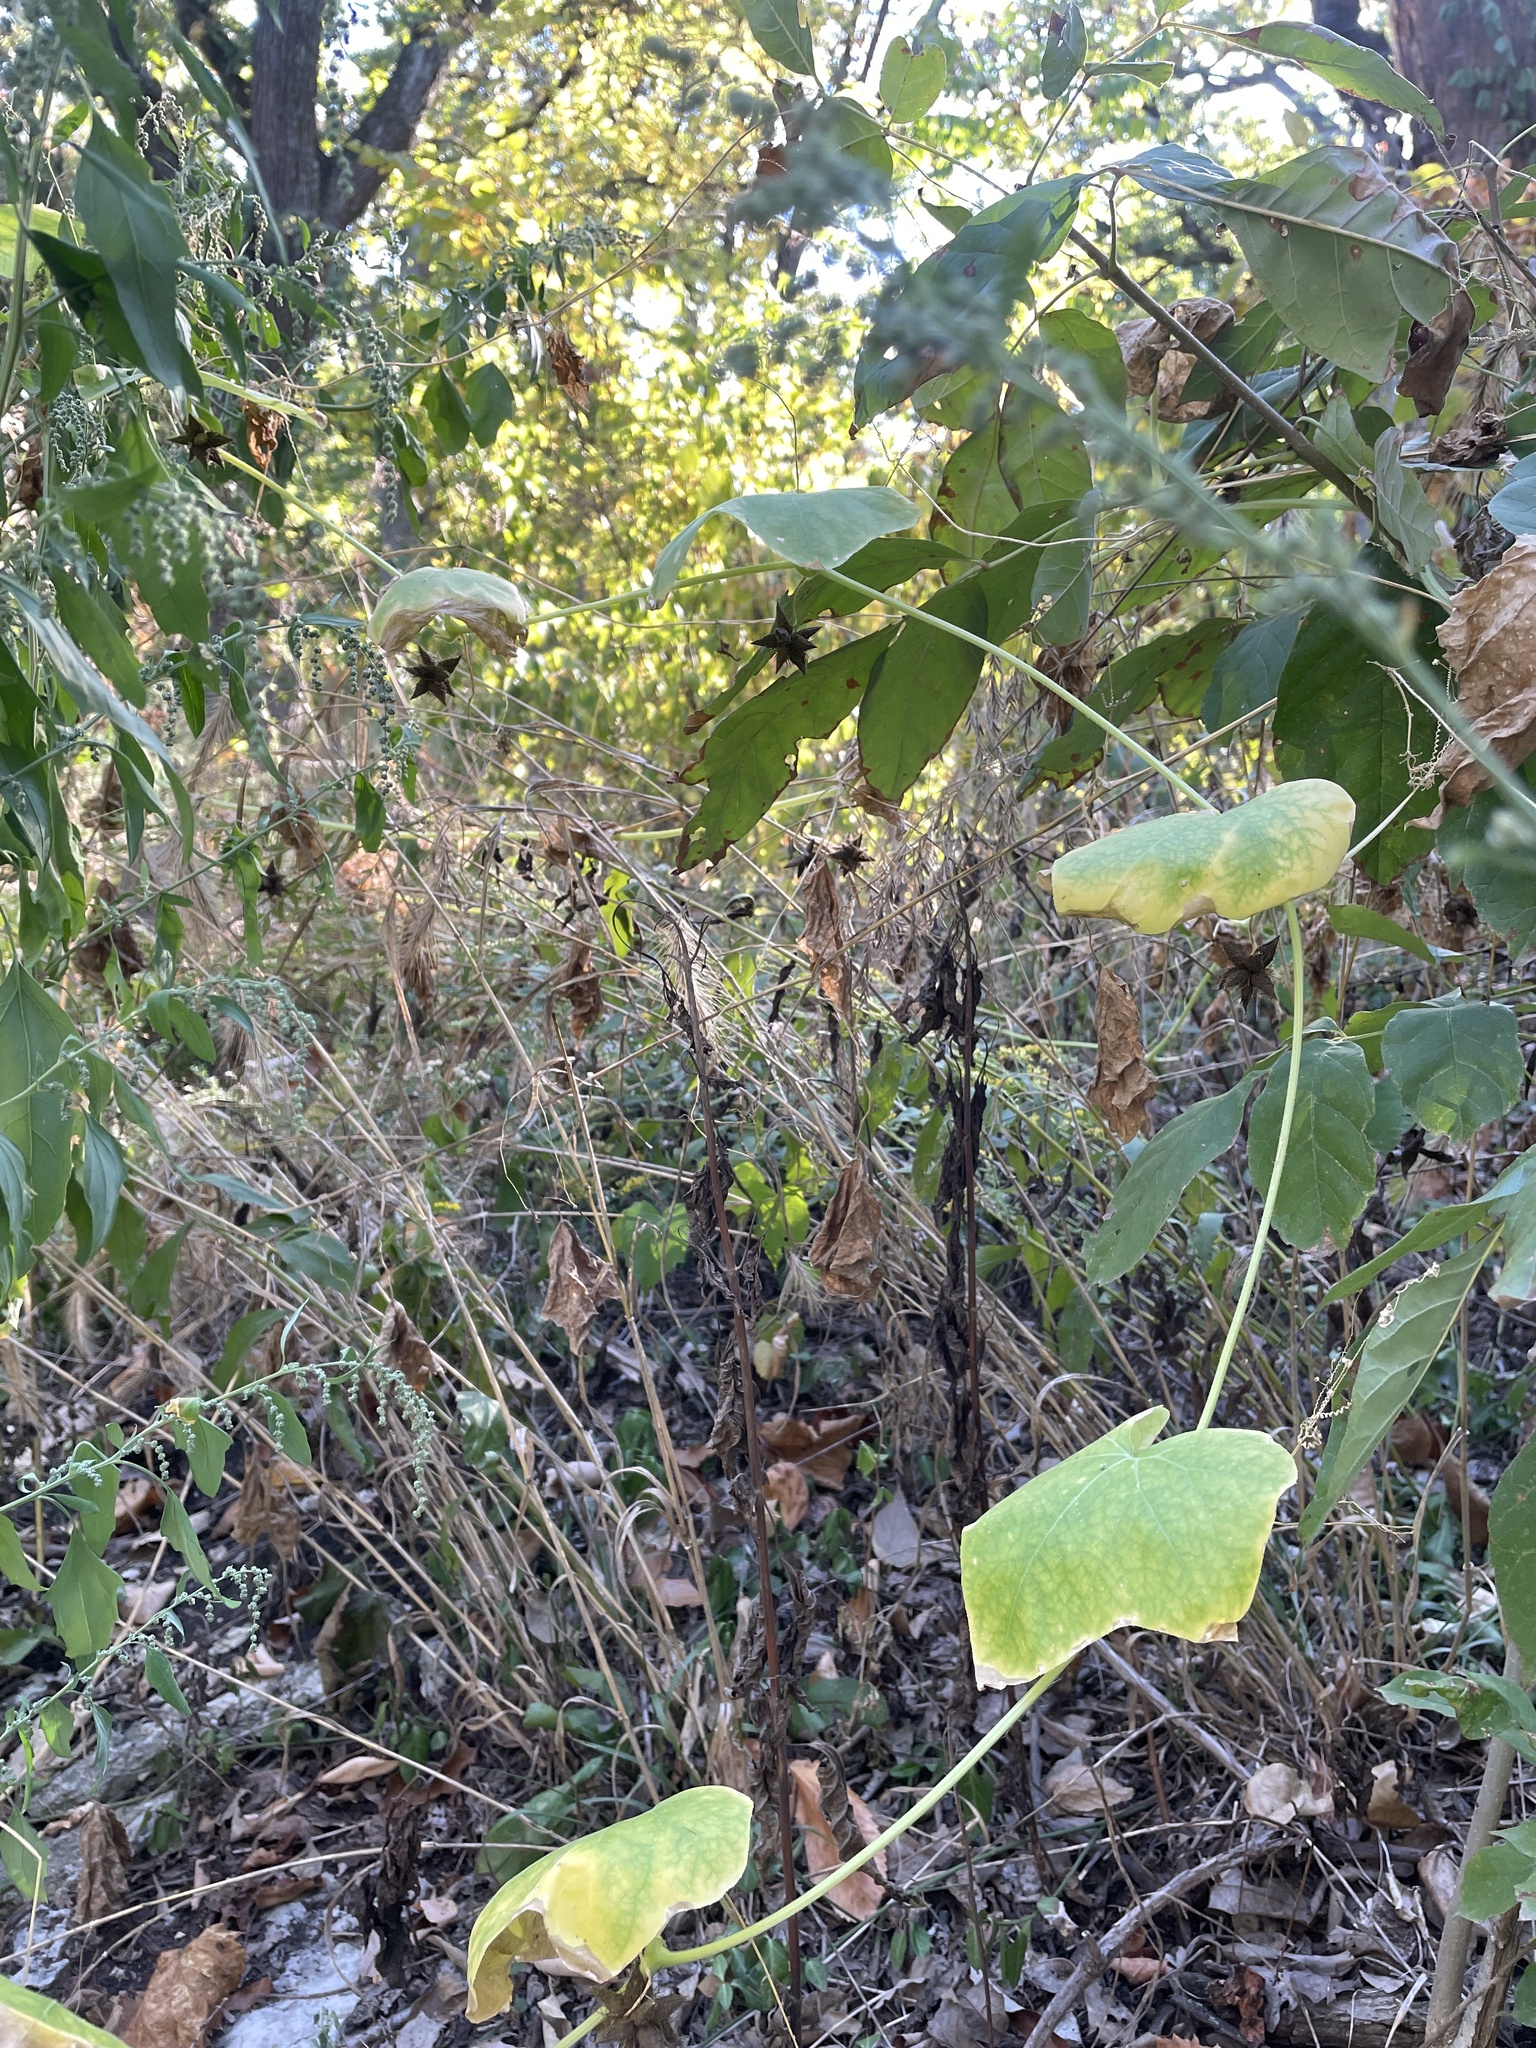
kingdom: Plantae
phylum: Tracheophyta
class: Magnoliopsida
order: Cucurbitales
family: Cucurbitaceae
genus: Sicyos
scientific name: Sicyos angulatus
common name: Angled burr cucumber
